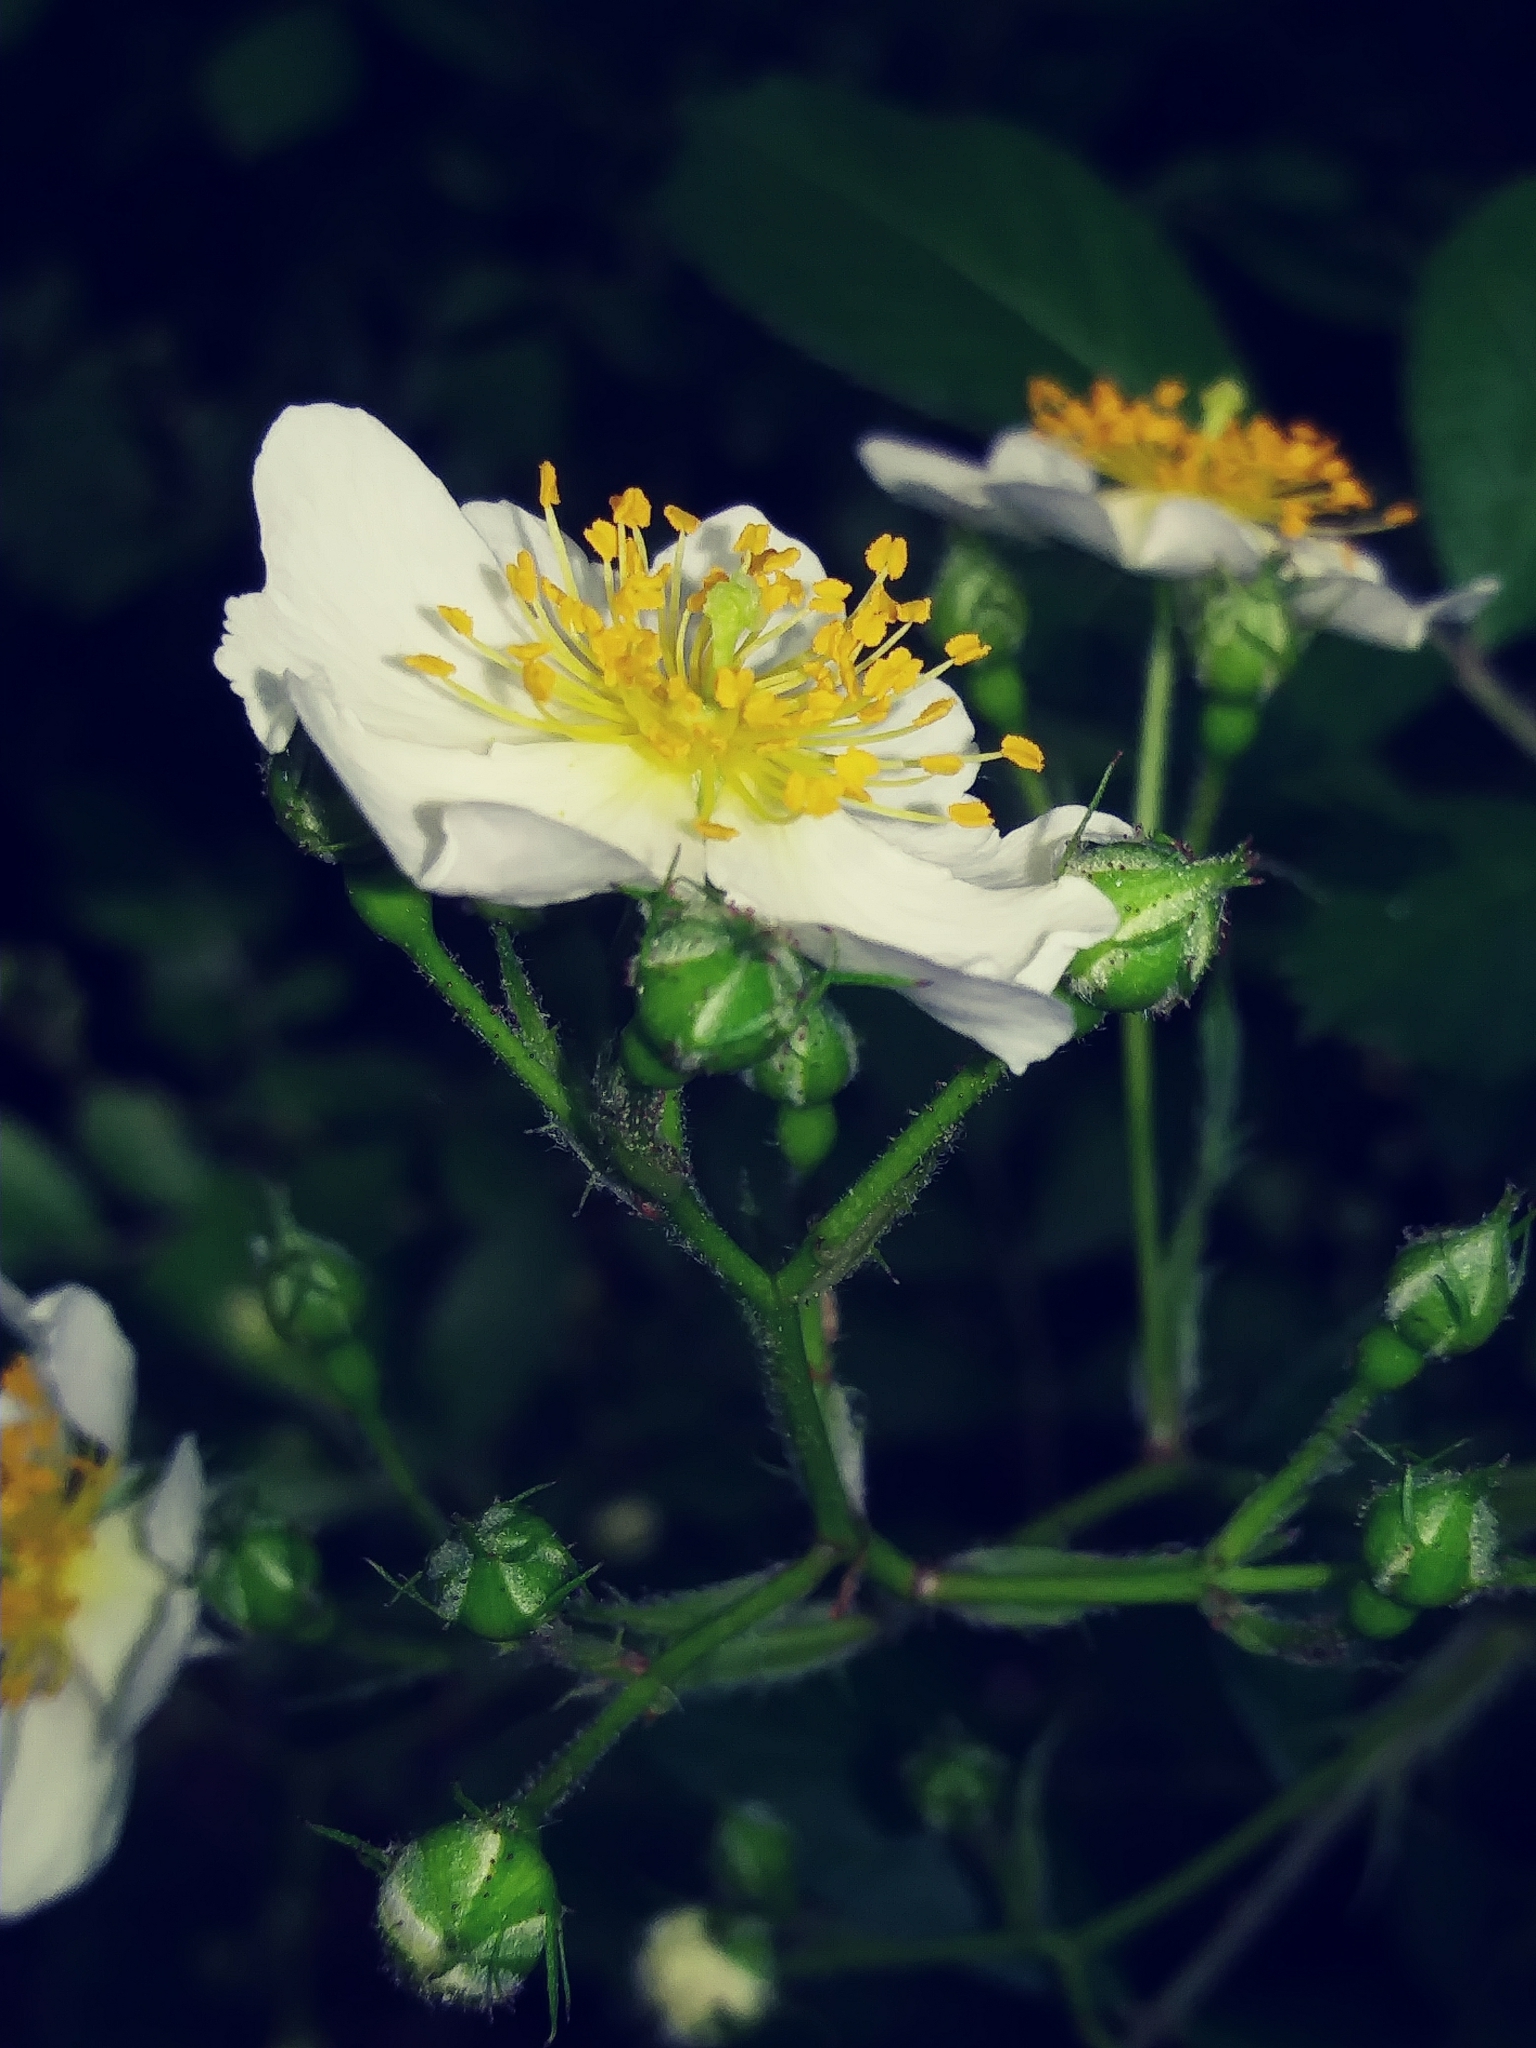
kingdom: Plantae
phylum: Tracheophyta
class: Magnoliopsida
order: Rosales
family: Rosaceae
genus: Rosa
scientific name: Rosa multiflora
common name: Multiflora rose
